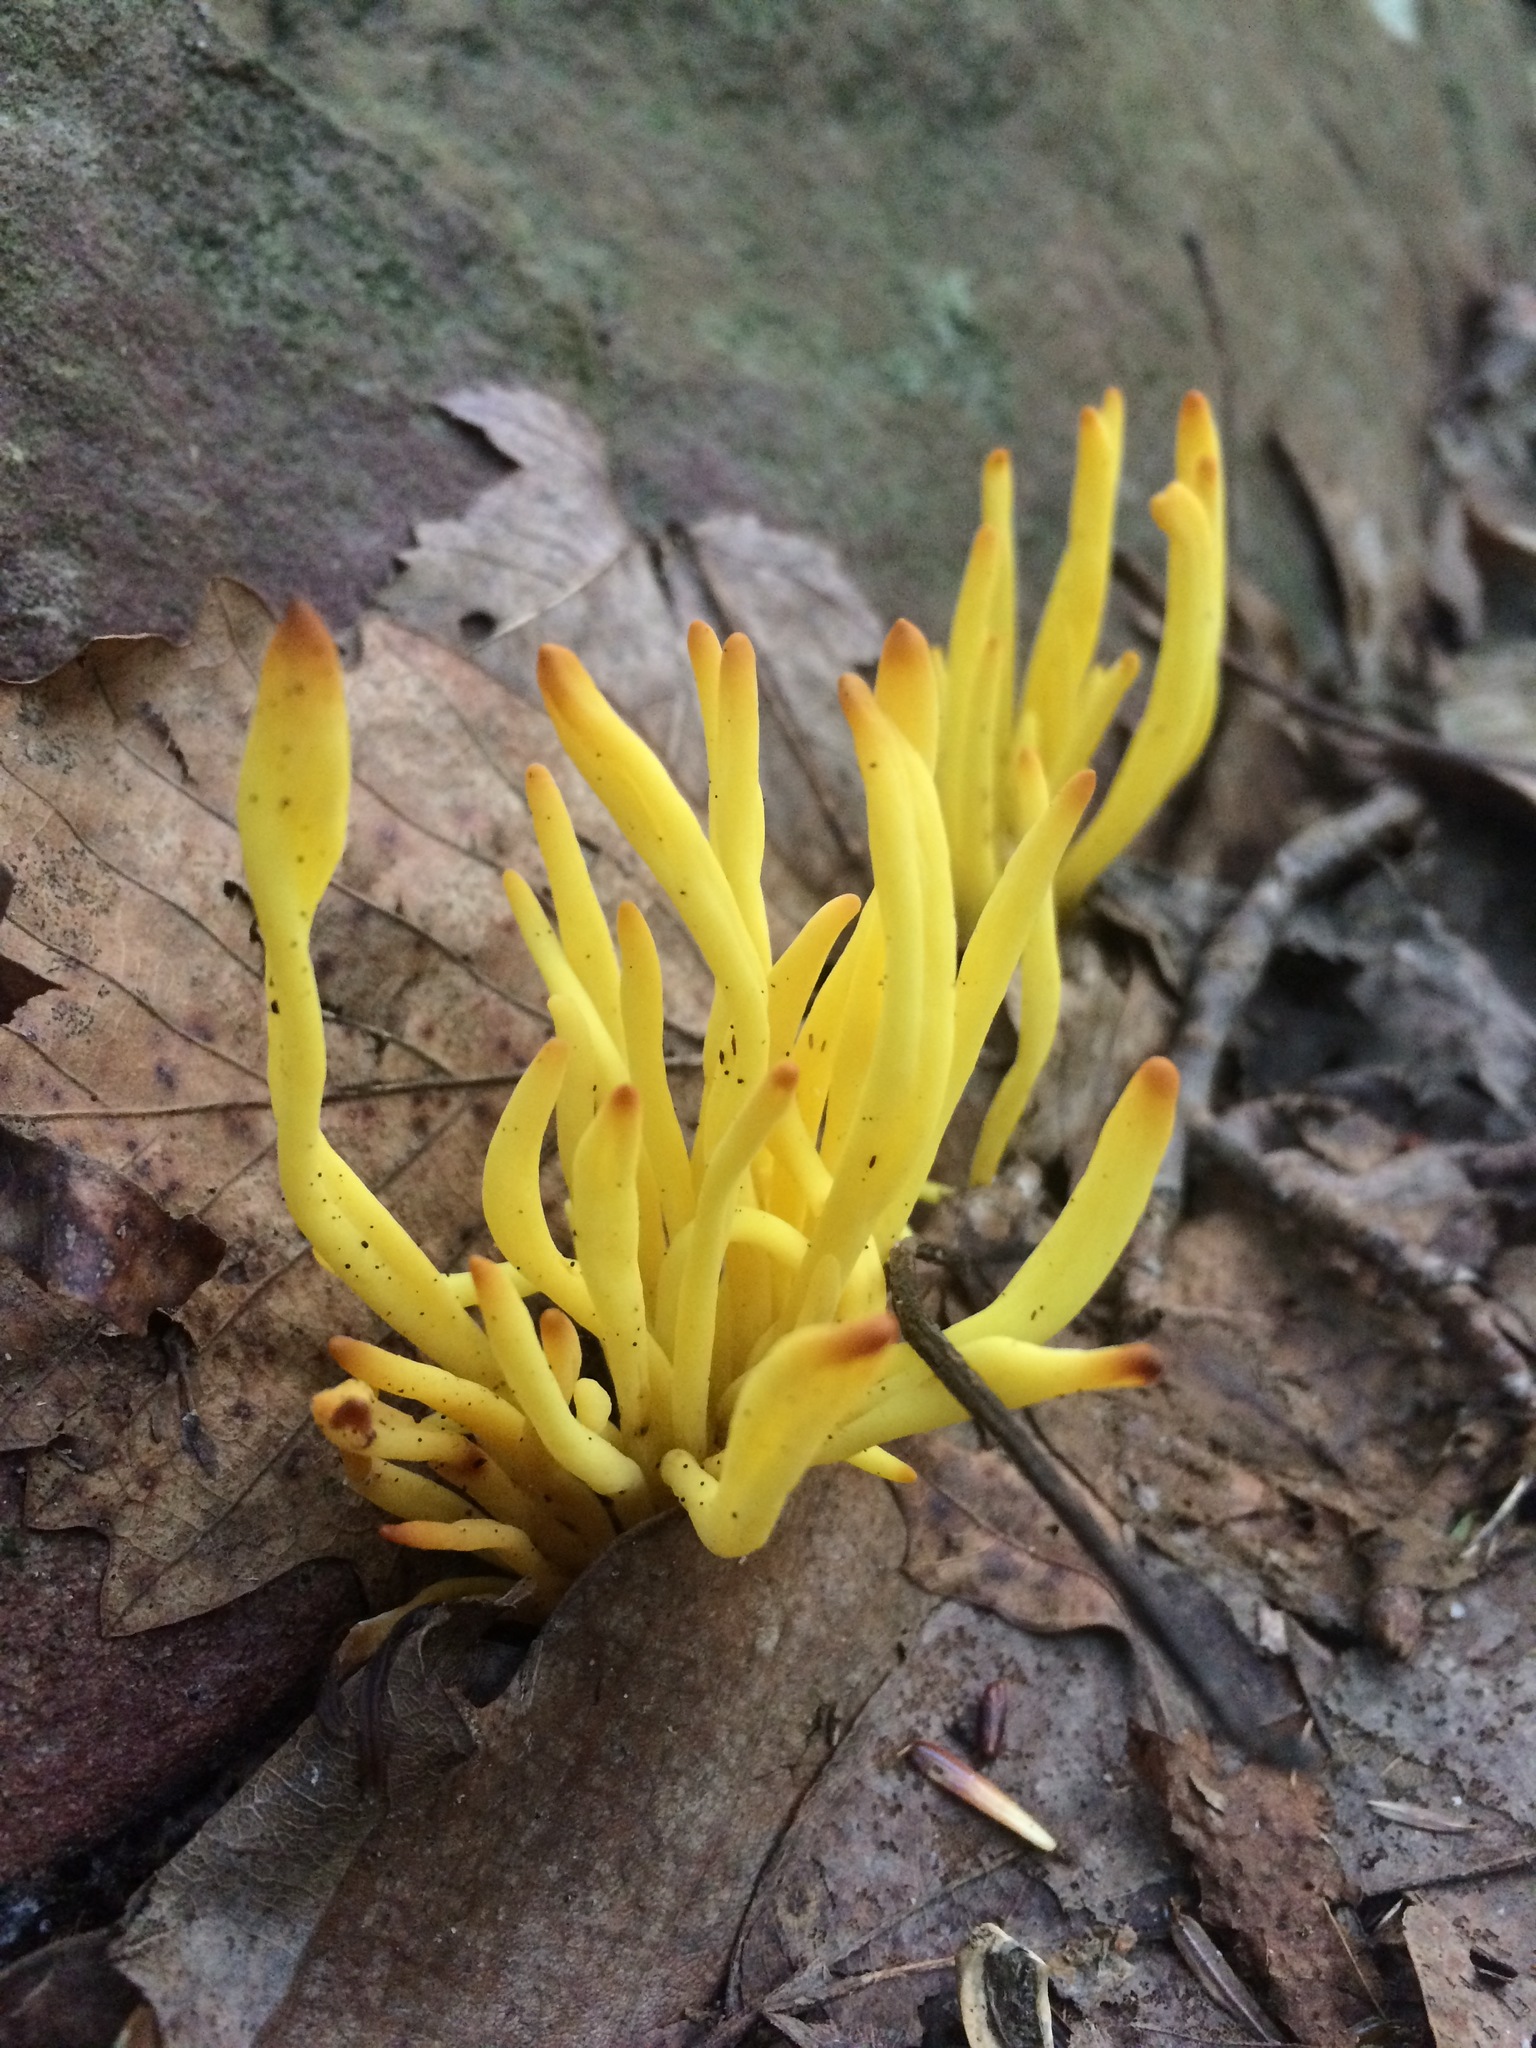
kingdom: Fungi
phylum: Basidiomycota
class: Agaricomycetes
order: Agaricales
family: Clavariaceae
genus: Clavulinopsis
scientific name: Clavulinopsis fusiformis
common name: Golden spindles
